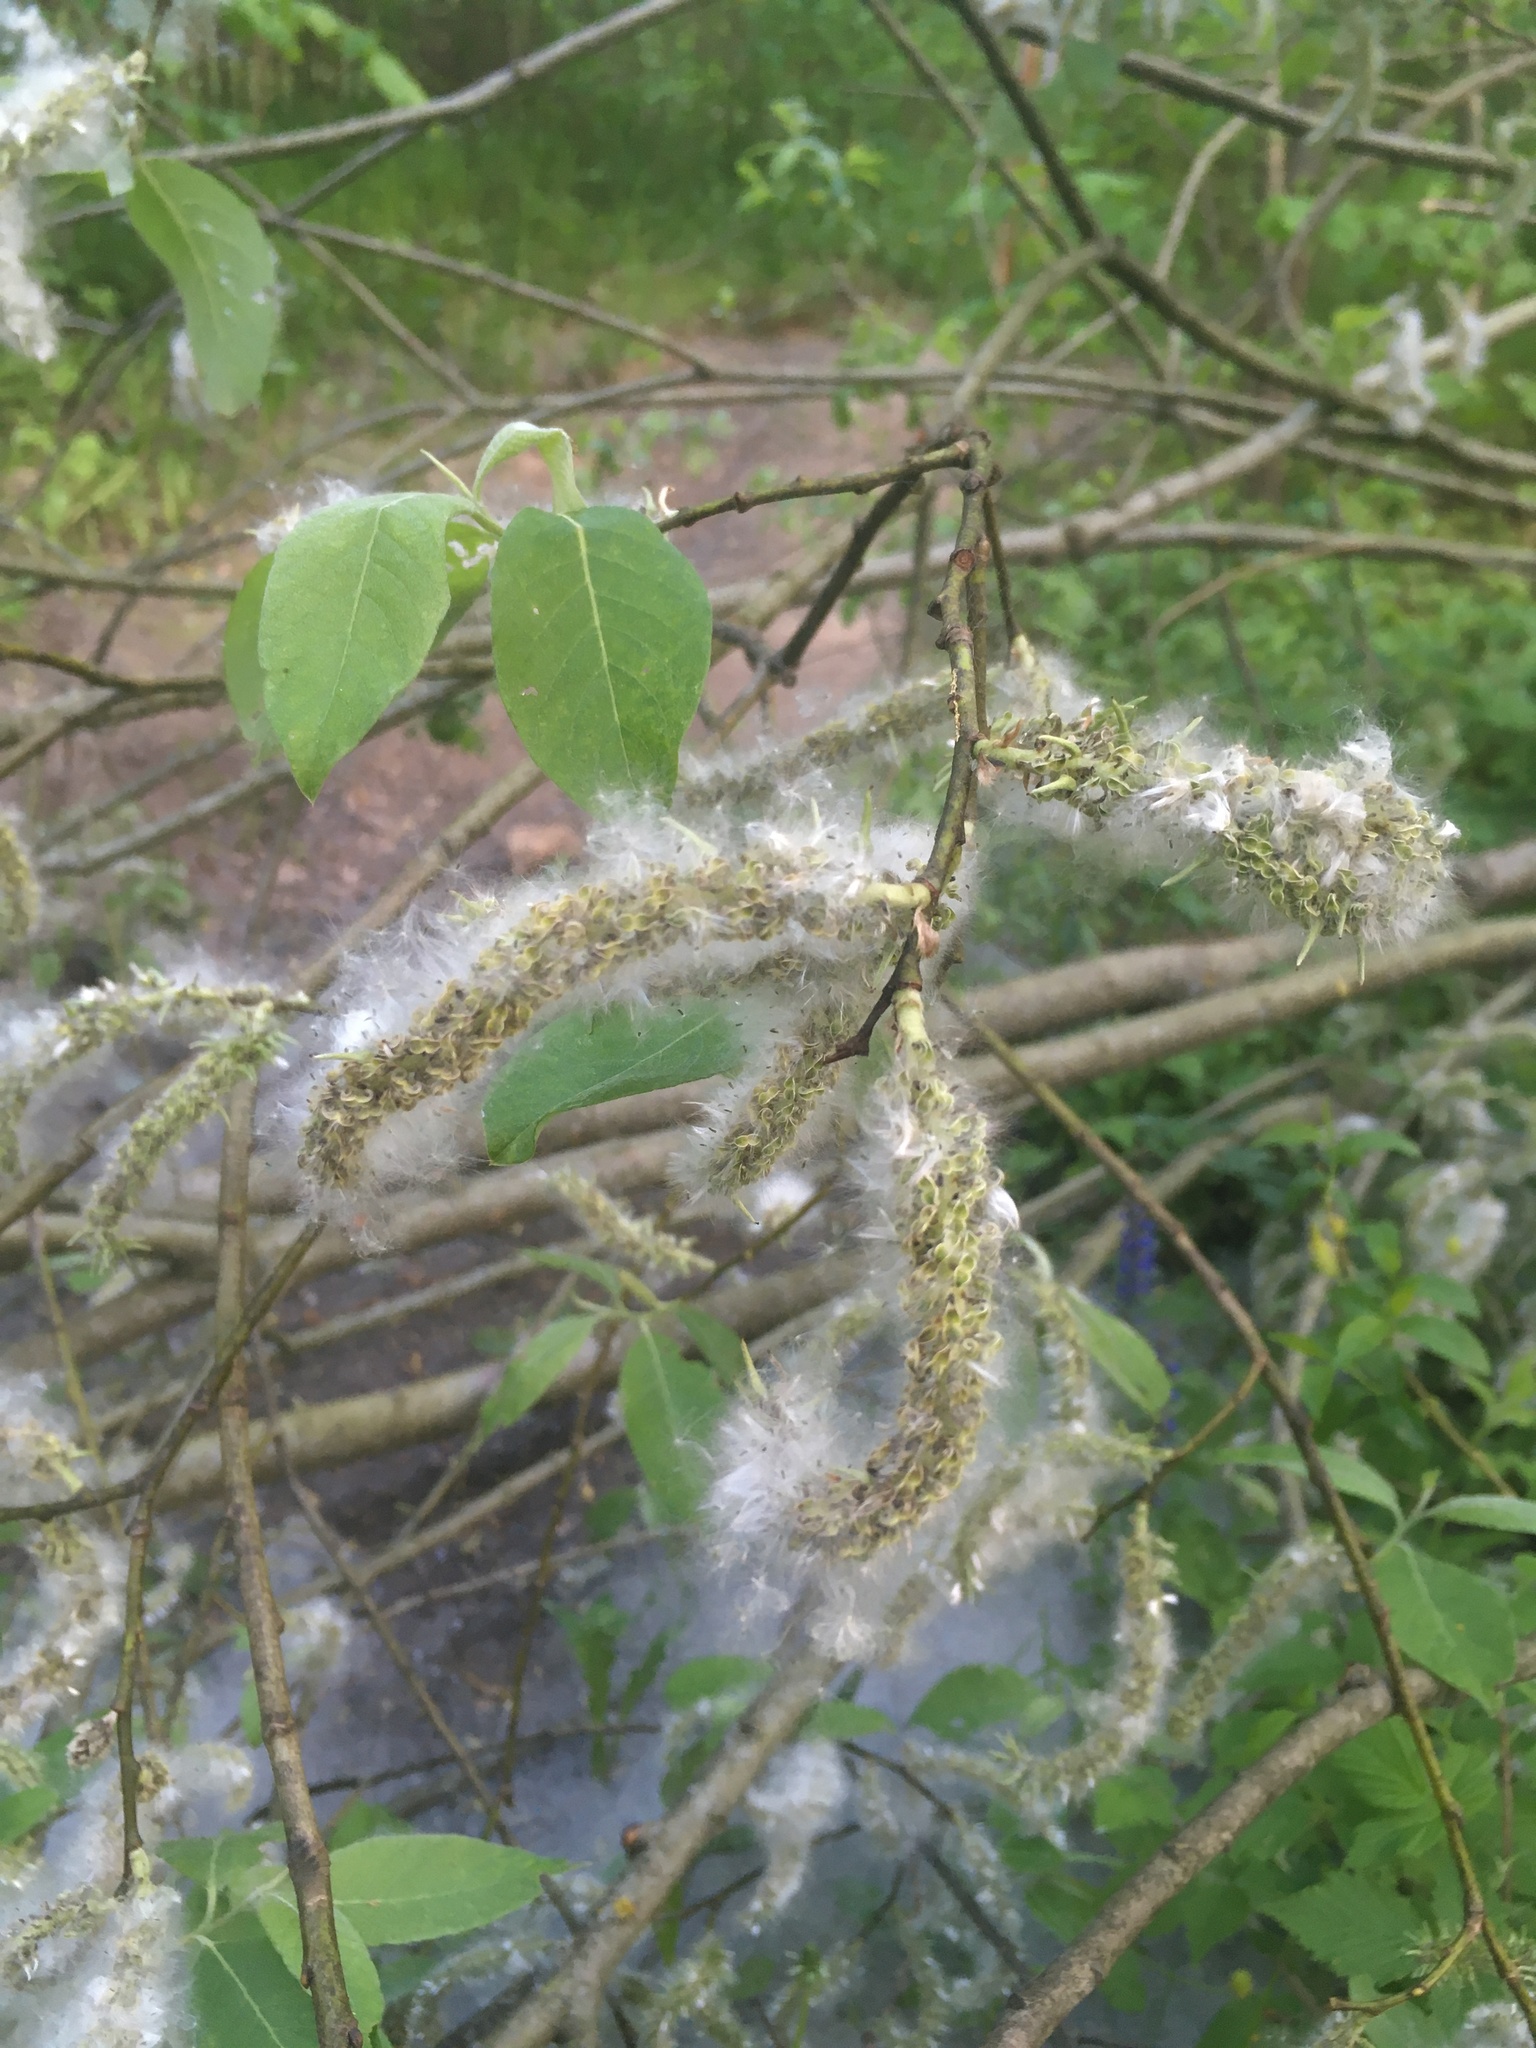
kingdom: Plantae
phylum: Tracheophyta
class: Magnoliopsida
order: Malpighiales
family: Salicaceae
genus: Salix
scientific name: Salix caprea
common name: Goat willow
